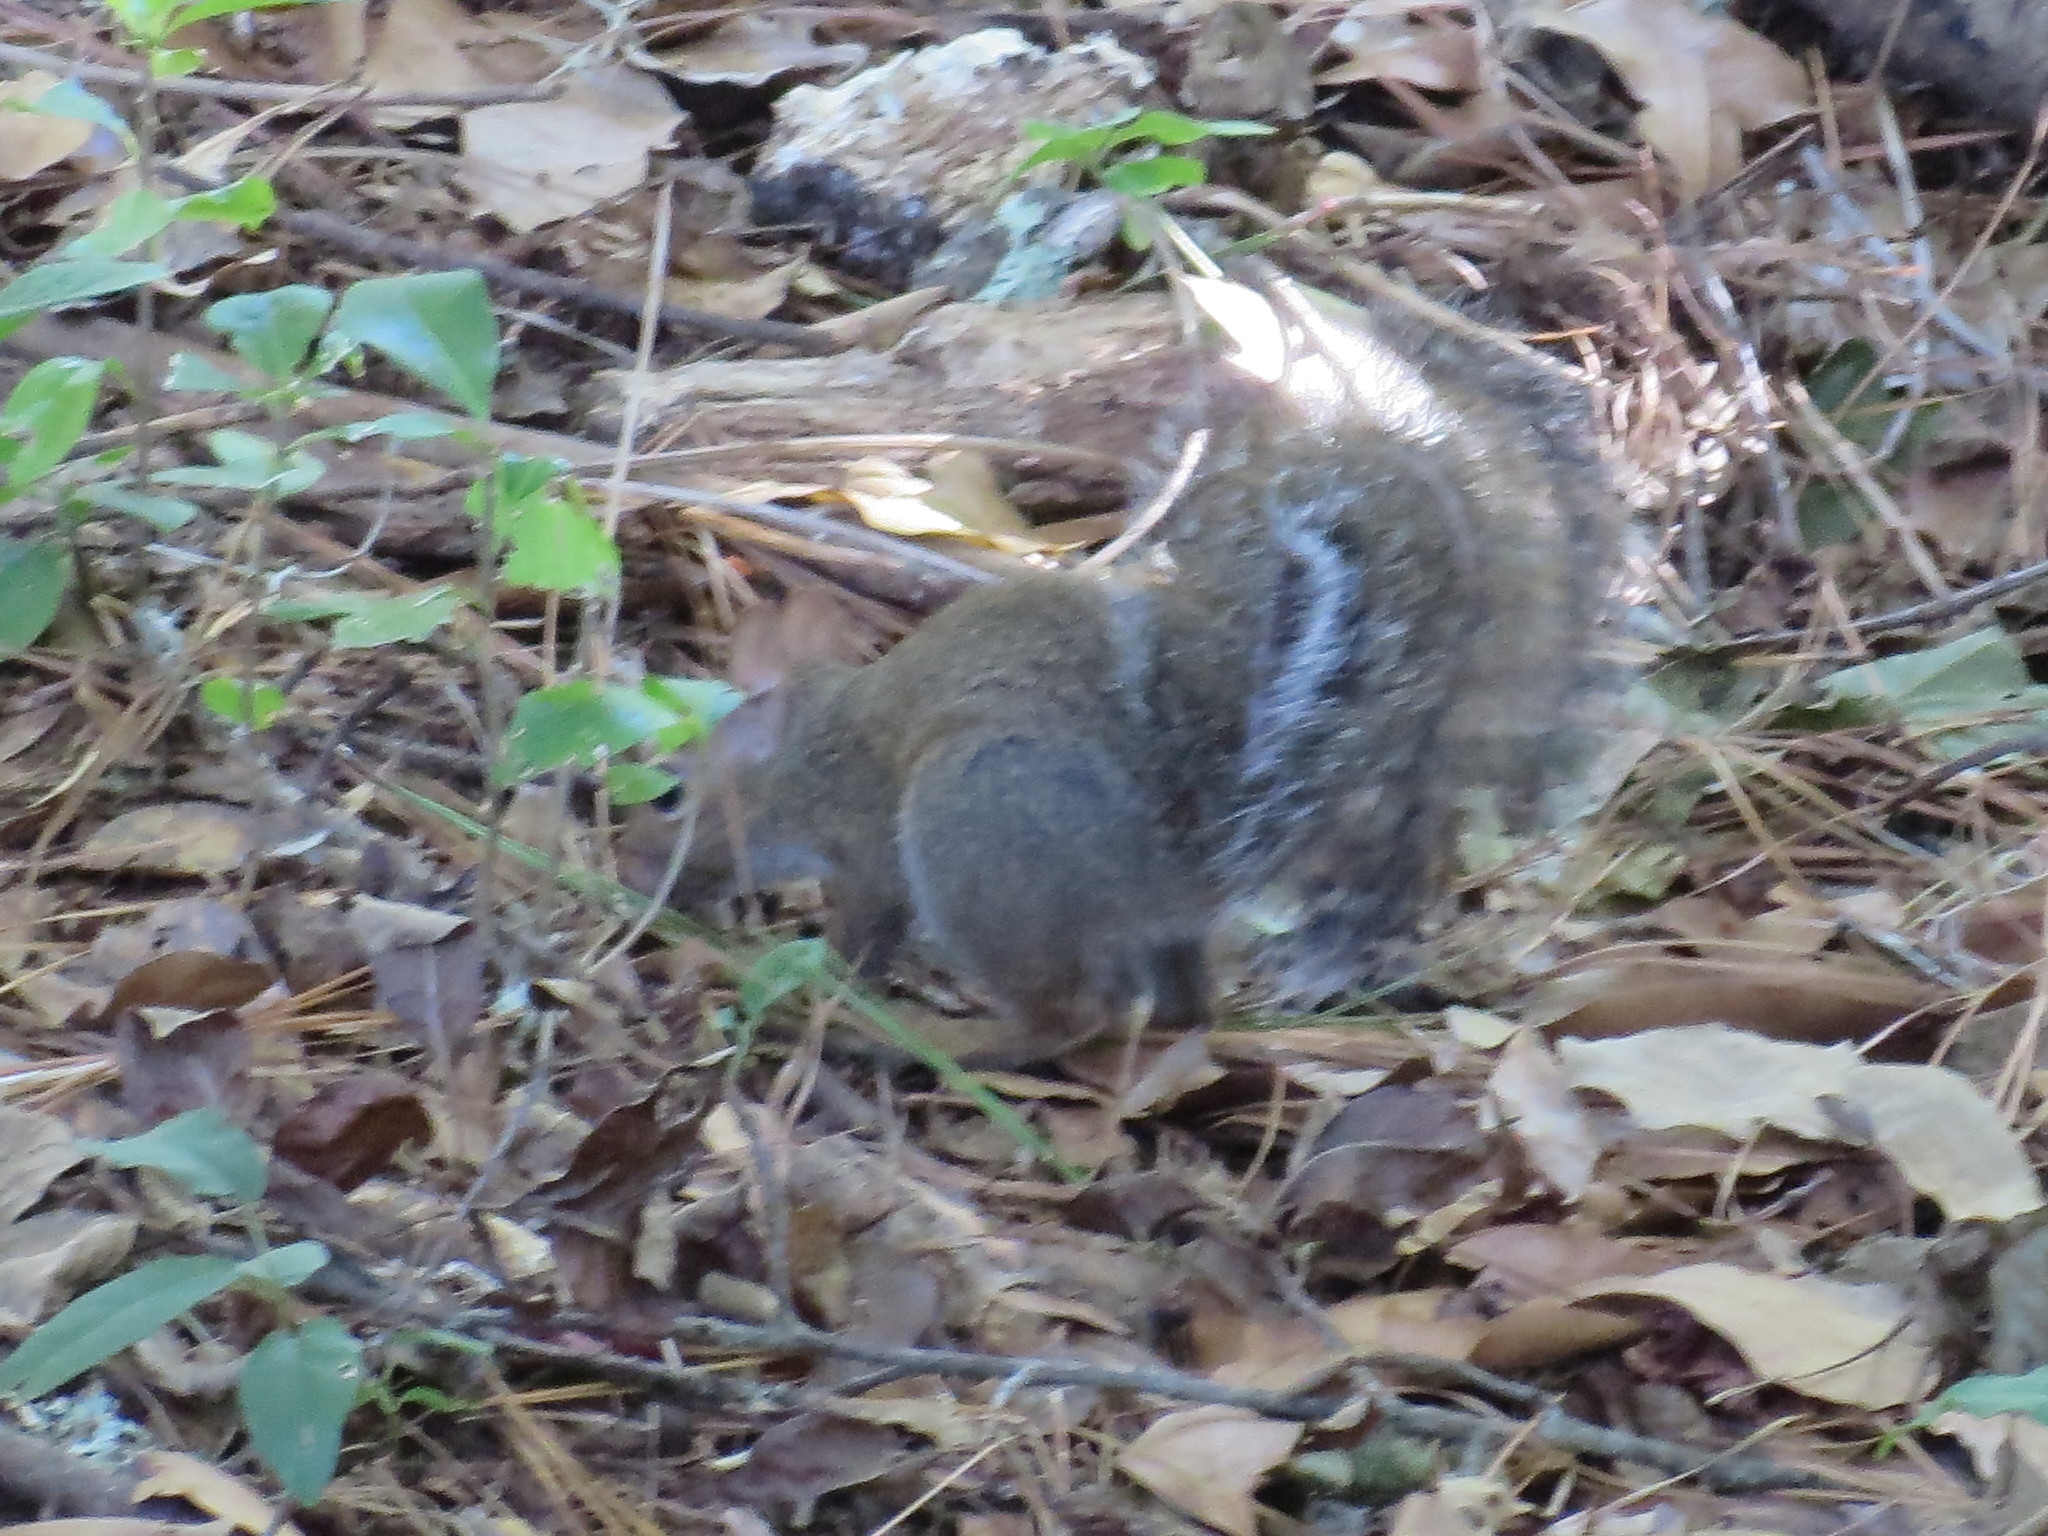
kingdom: Animalia
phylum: Chordata
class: Mammalia
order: Rodentia
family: Sciuridae
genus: Sciurus
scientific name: Sciurus carolinensis
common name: Eastern gray squirrel
